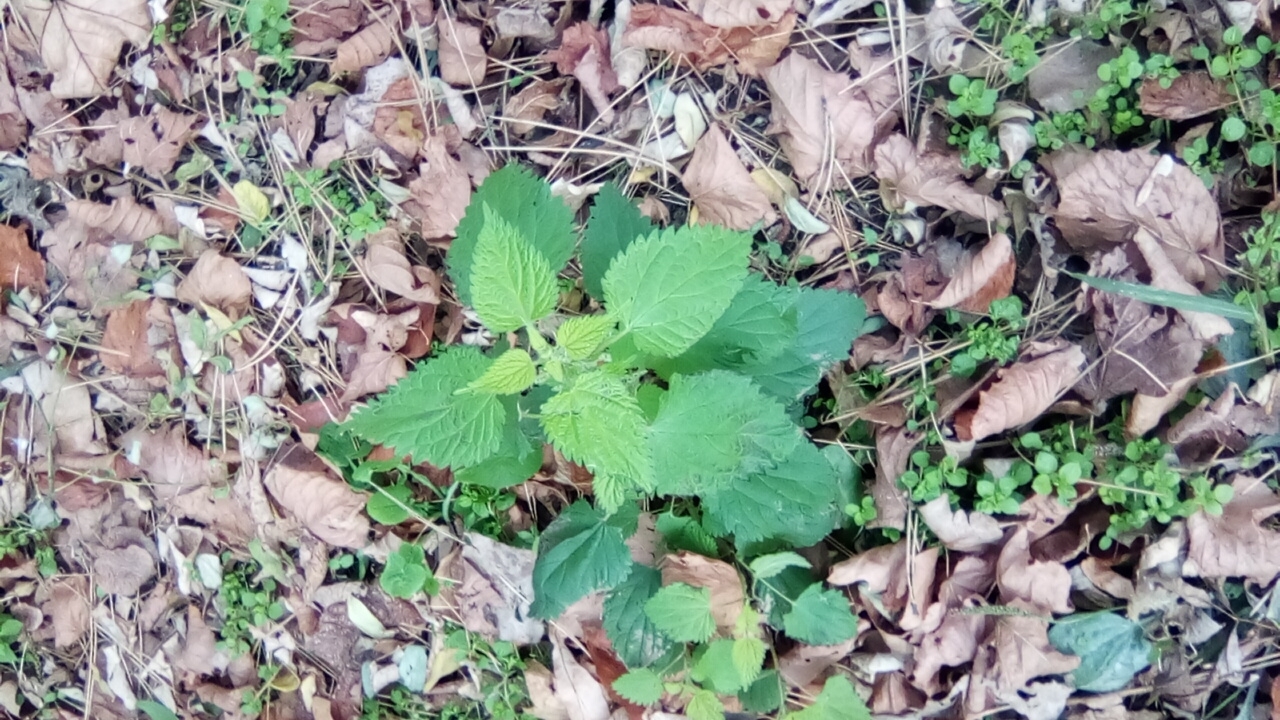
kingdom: Plantae
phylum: Tracheophyta
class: Magnoliopsida
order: Rosales
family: Urticaceae
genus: Urtica
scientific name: Urtica dioica
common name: Common nettle
